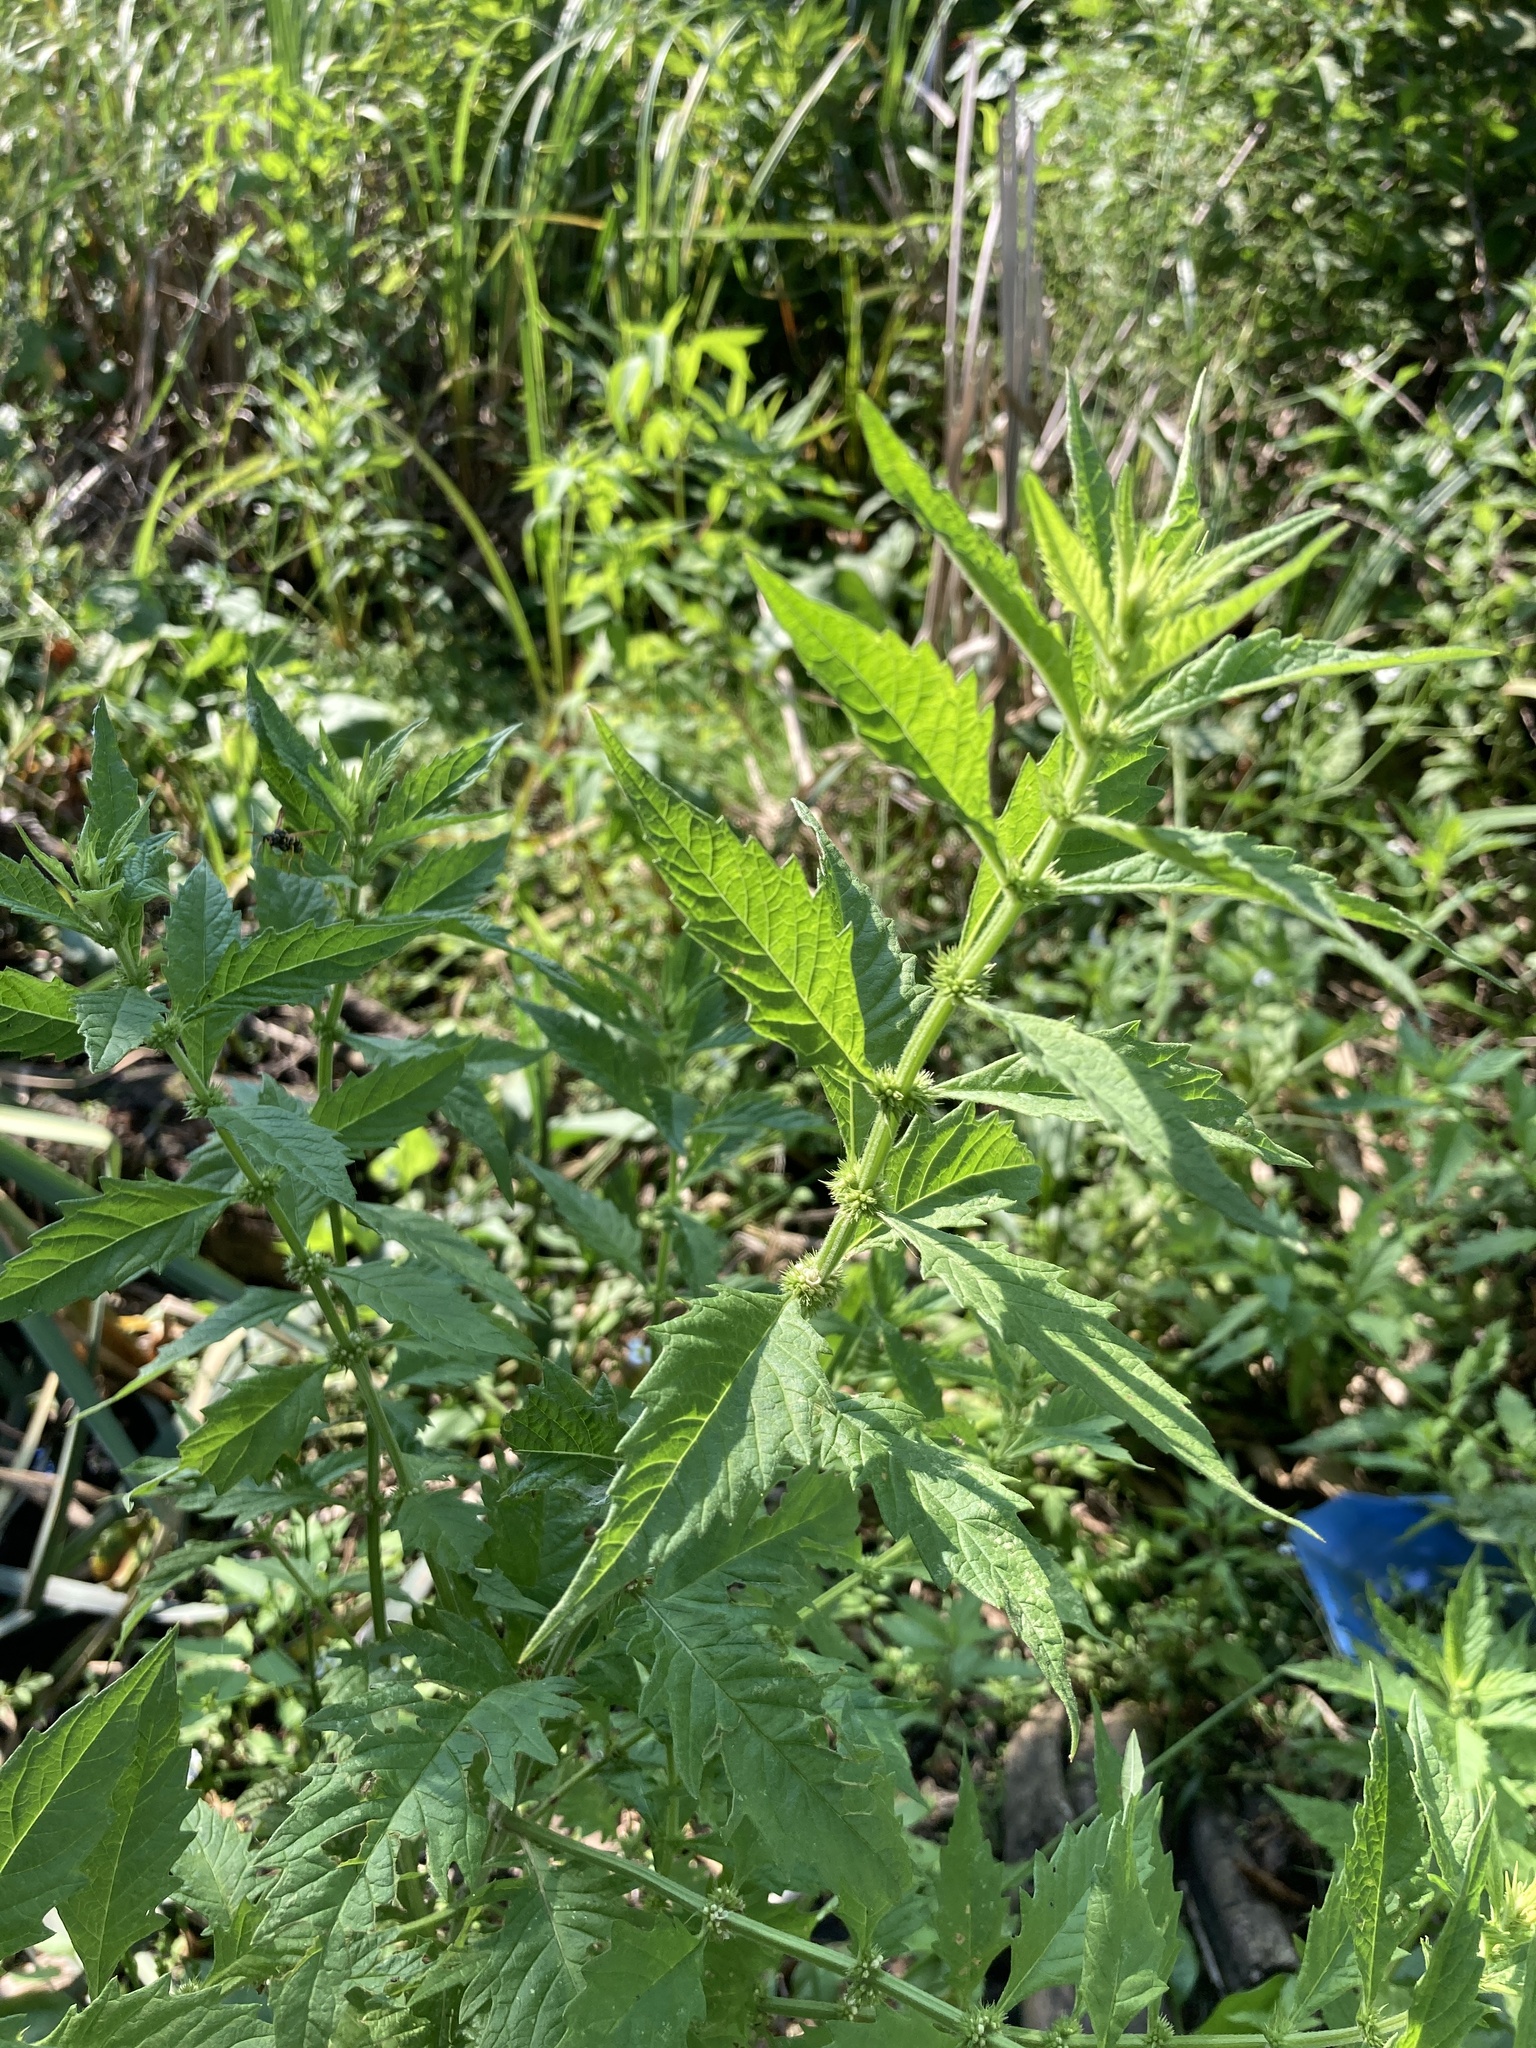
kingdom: Plantae
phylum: Tracheophyta
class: Magnoliopsida
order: Lamiales
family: Lamiaceae
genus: Lycopus
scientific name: Lycopus europaeus
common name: European bugleweed
